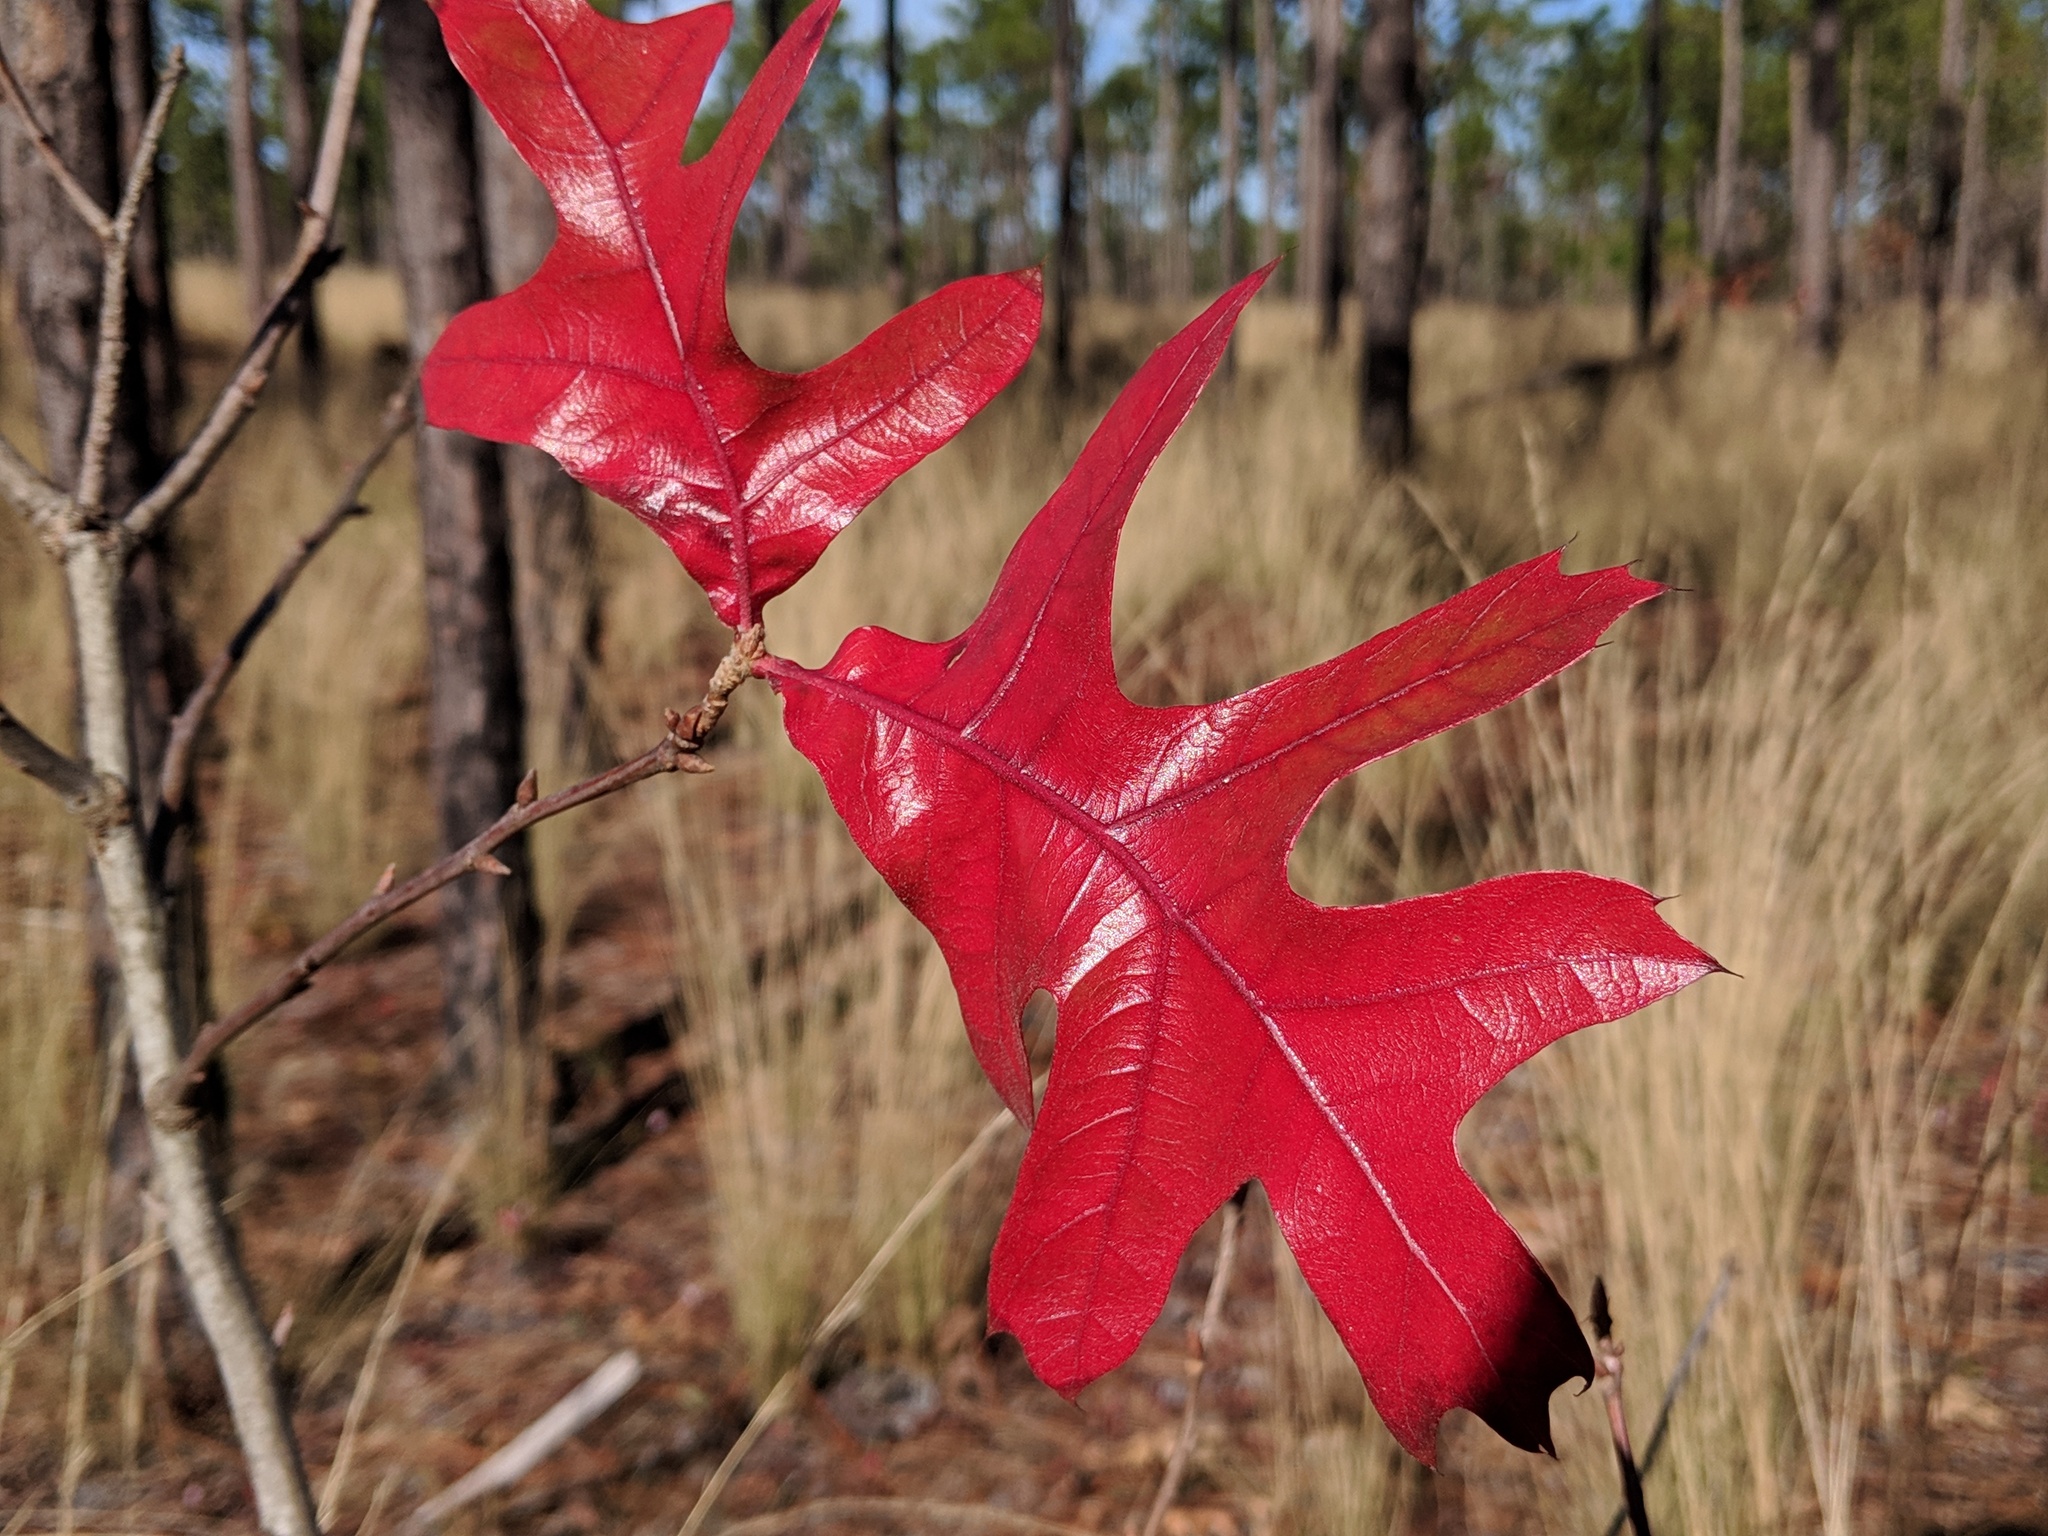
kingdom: Plantae
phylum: Tracheophyta
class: Magnoliopsida
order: Fagales
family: Fagaceae
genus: Quercus
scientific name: Quercus laevis
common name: Turkey oak
